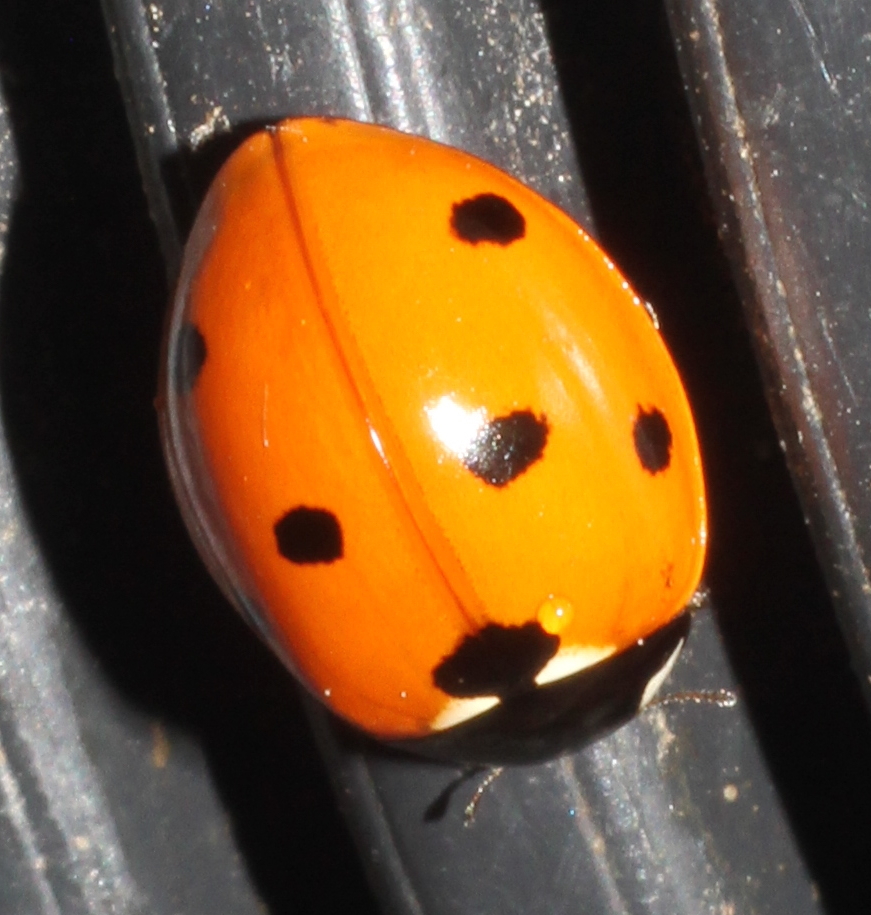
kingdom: Animalia
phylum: Arthropoda
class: Insecta
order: Coleoptera
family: Coccinellidae
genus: Coccinella
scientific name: Coccinella septempunctata
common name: Sevenspotted lady beetle
